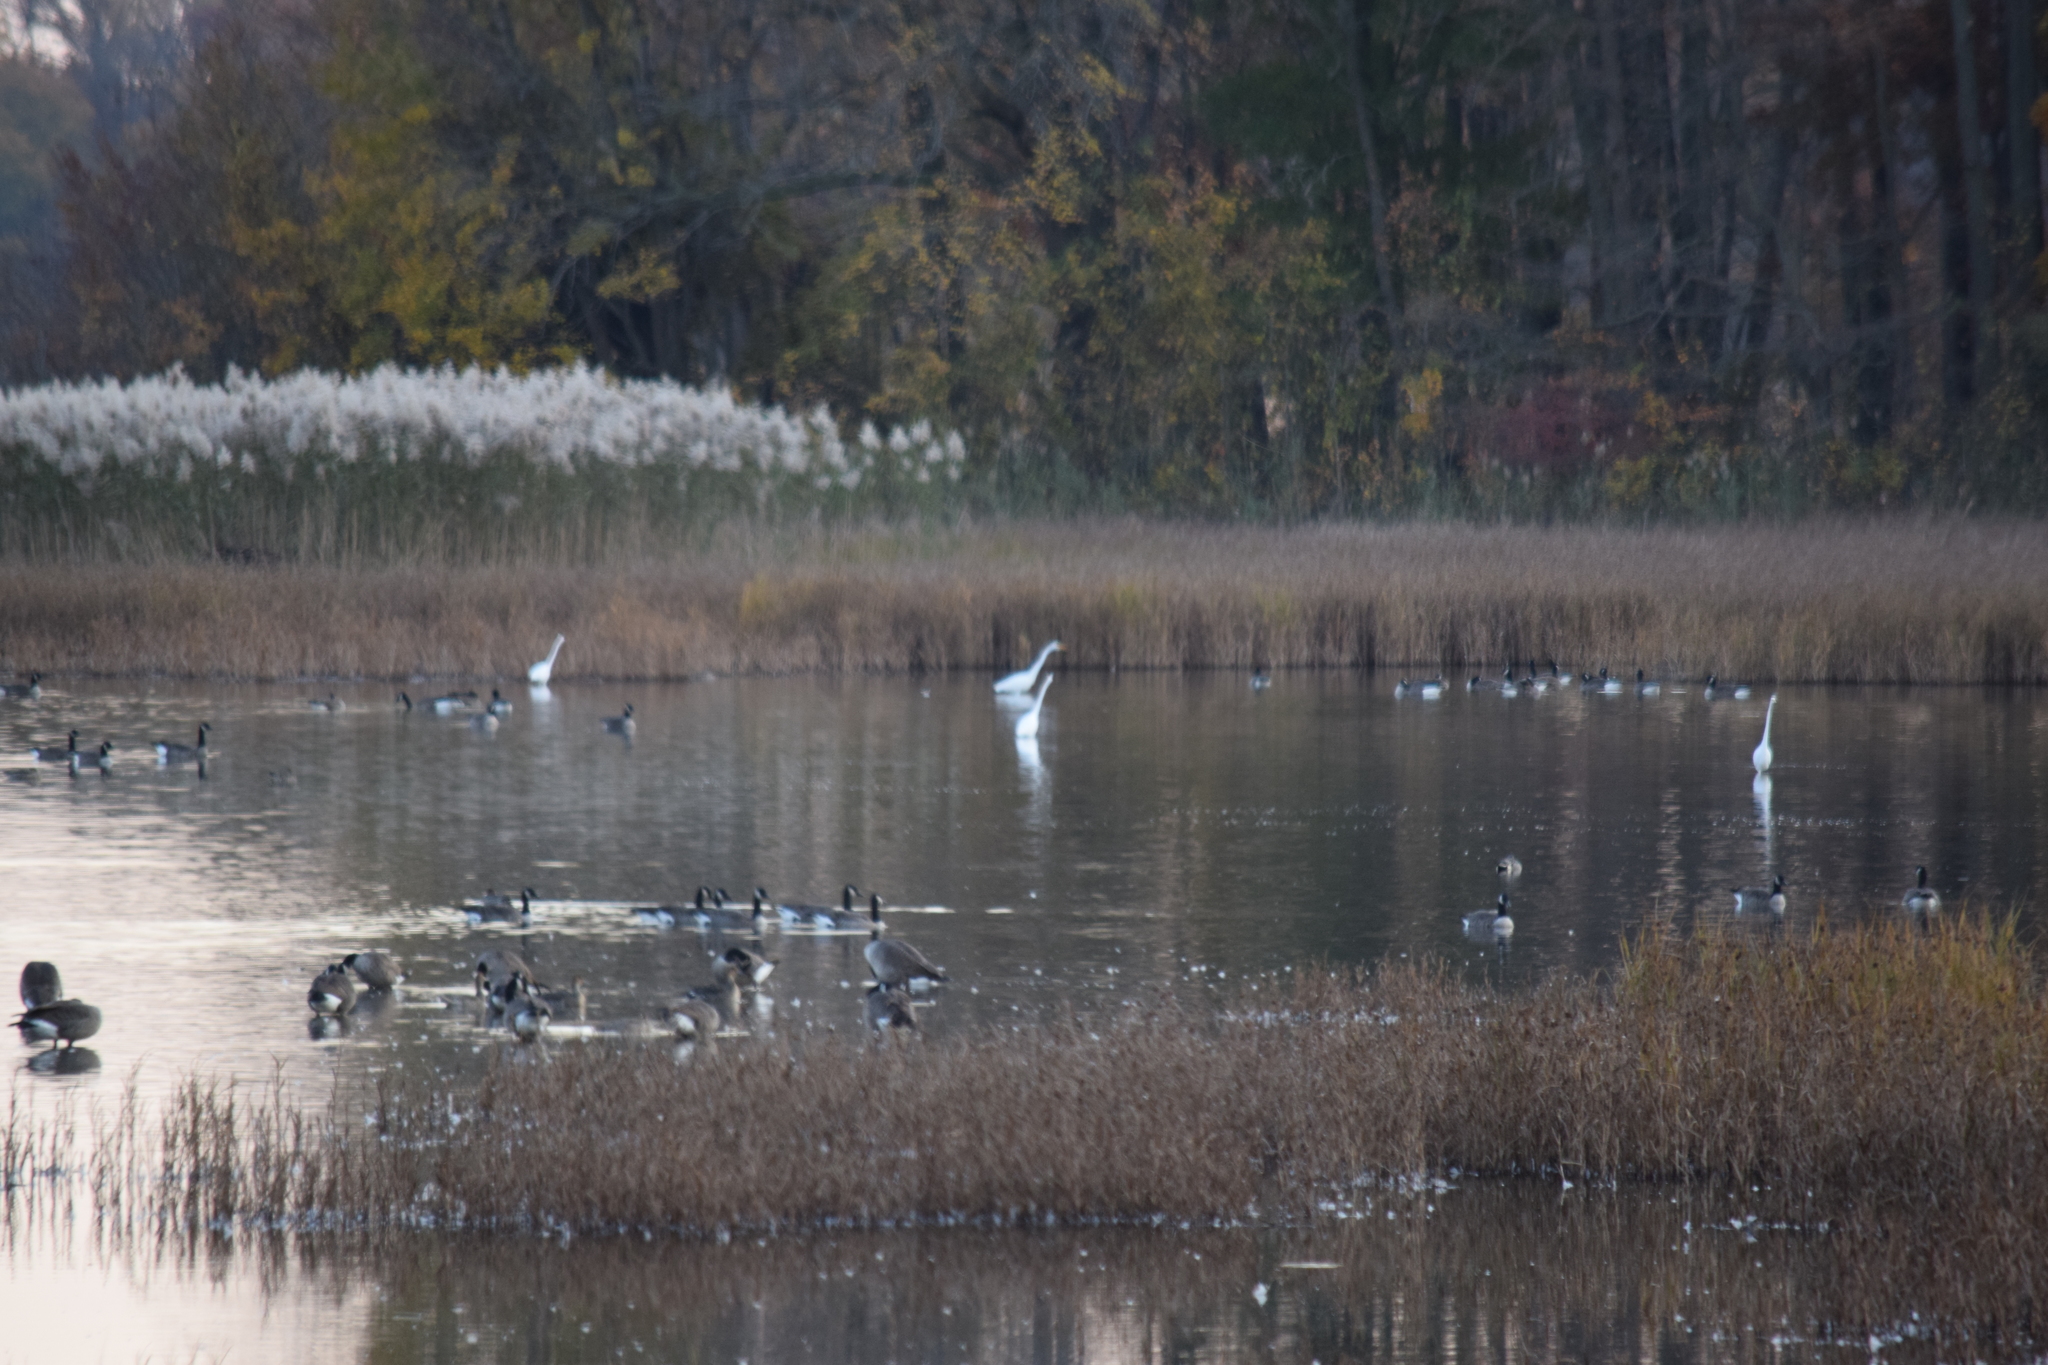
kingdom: Animalia
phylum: Chordata
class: Aves
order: Anseriformes
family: Anatidae
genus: Branta
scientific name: Branta canadensis
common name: Canada goose
